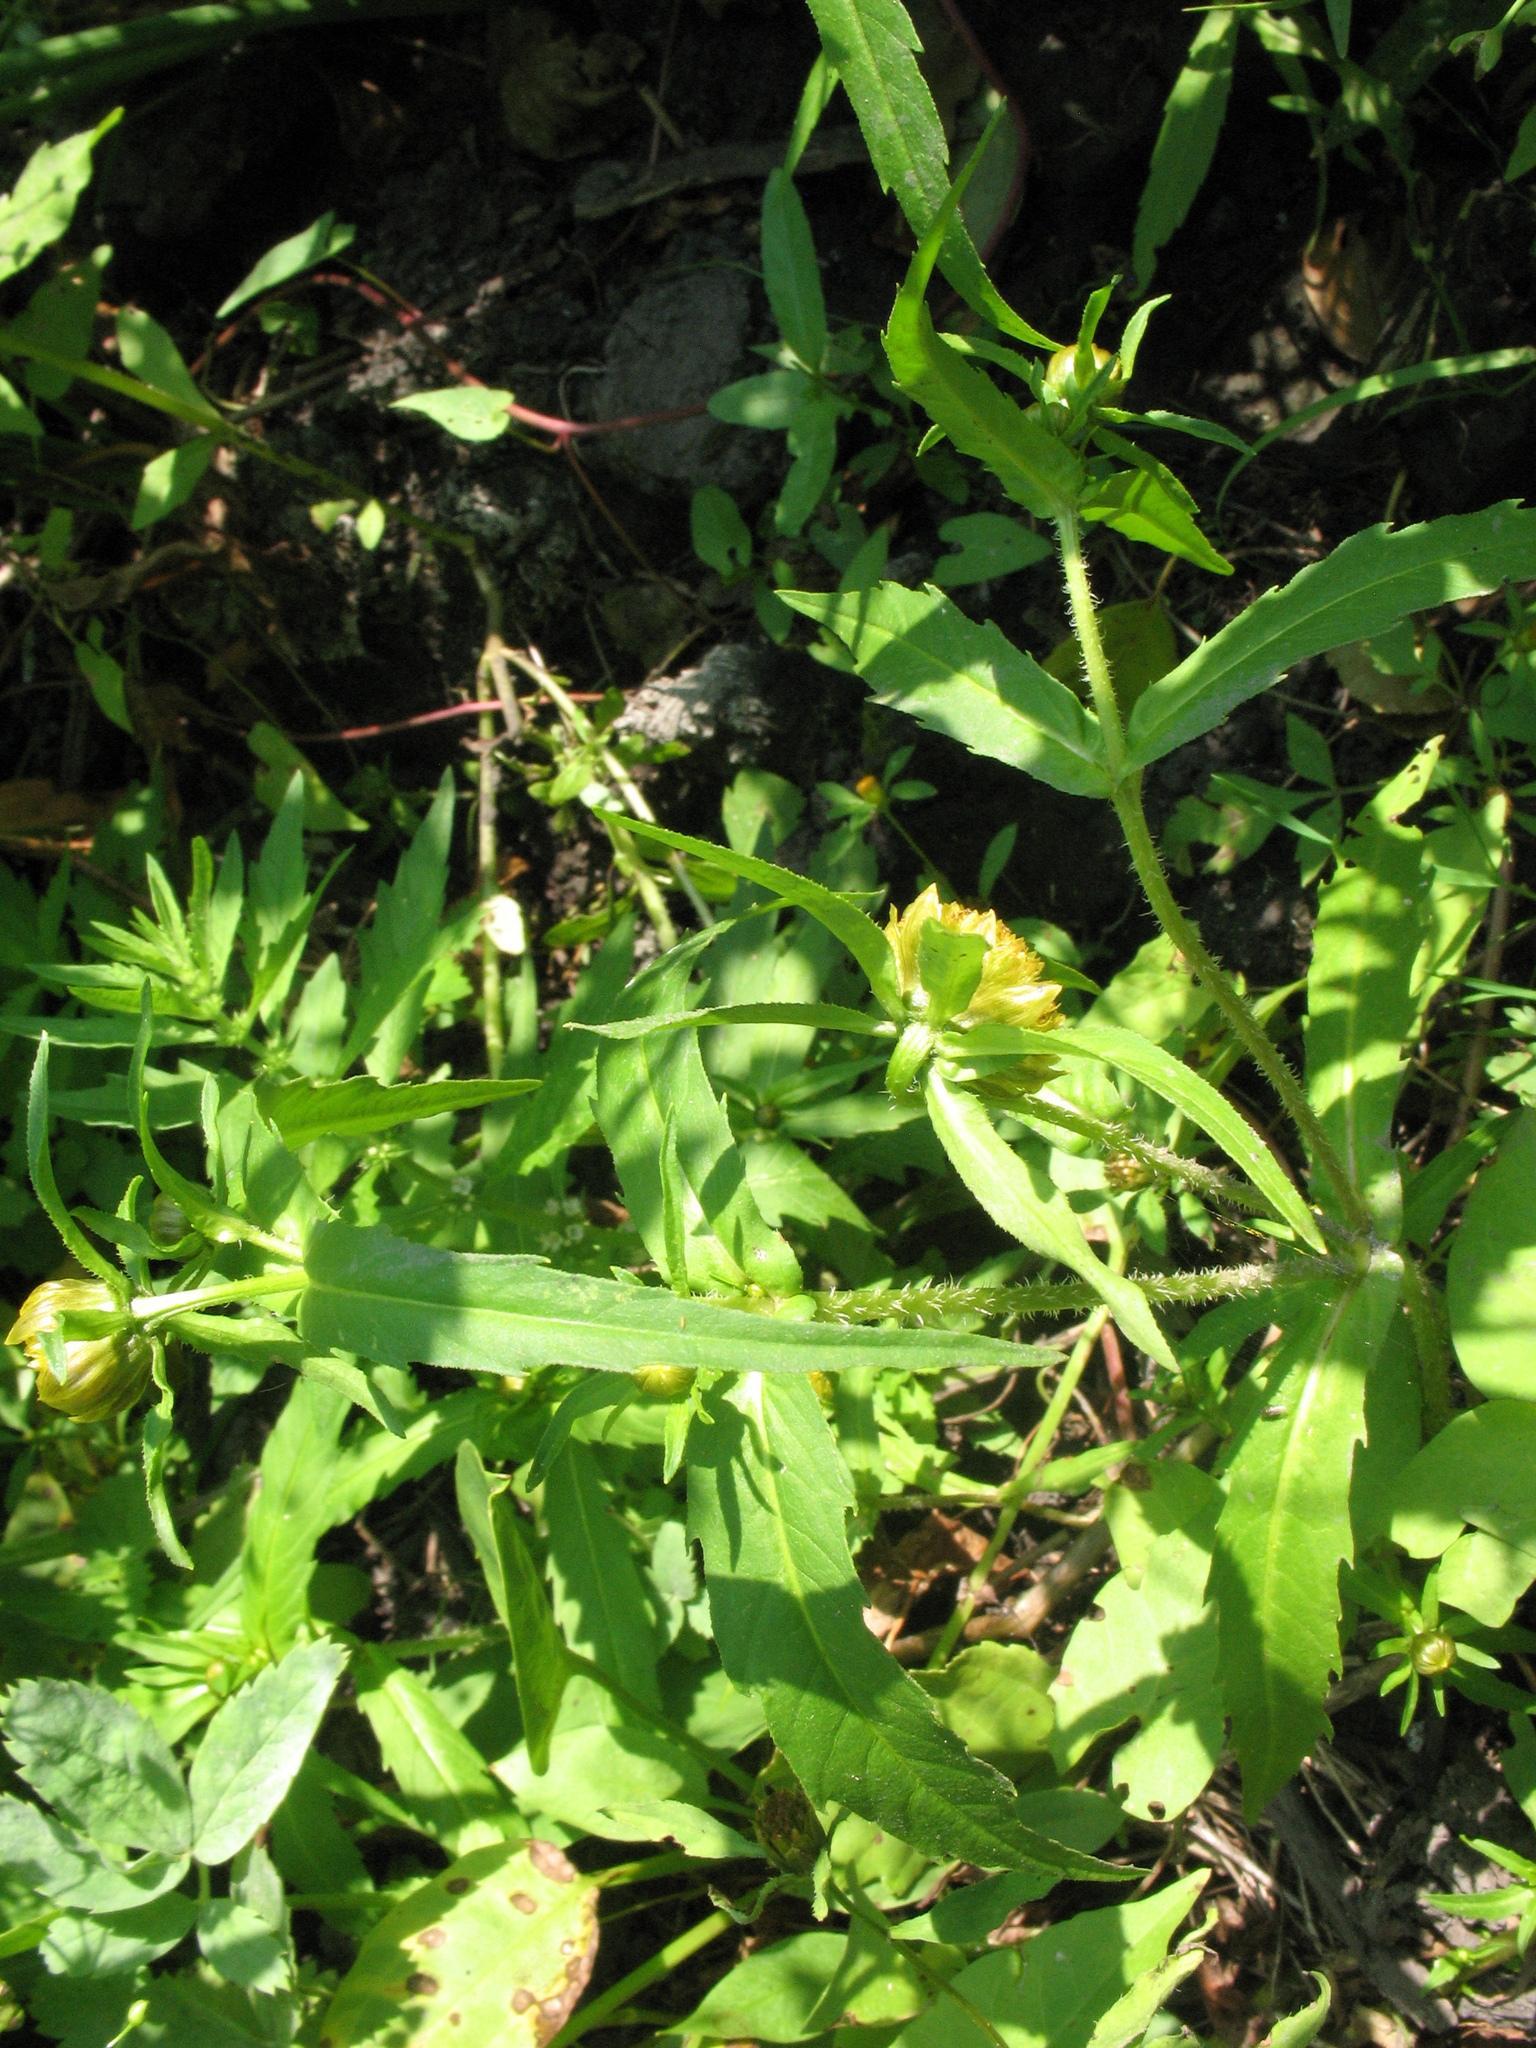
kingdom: Plantae
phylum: Tracheophyta
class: Magnoliopsida
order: Asterales
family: Asteraceae
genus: Bidens
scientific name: Bidens cernua
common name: Nodding bur-marigold
